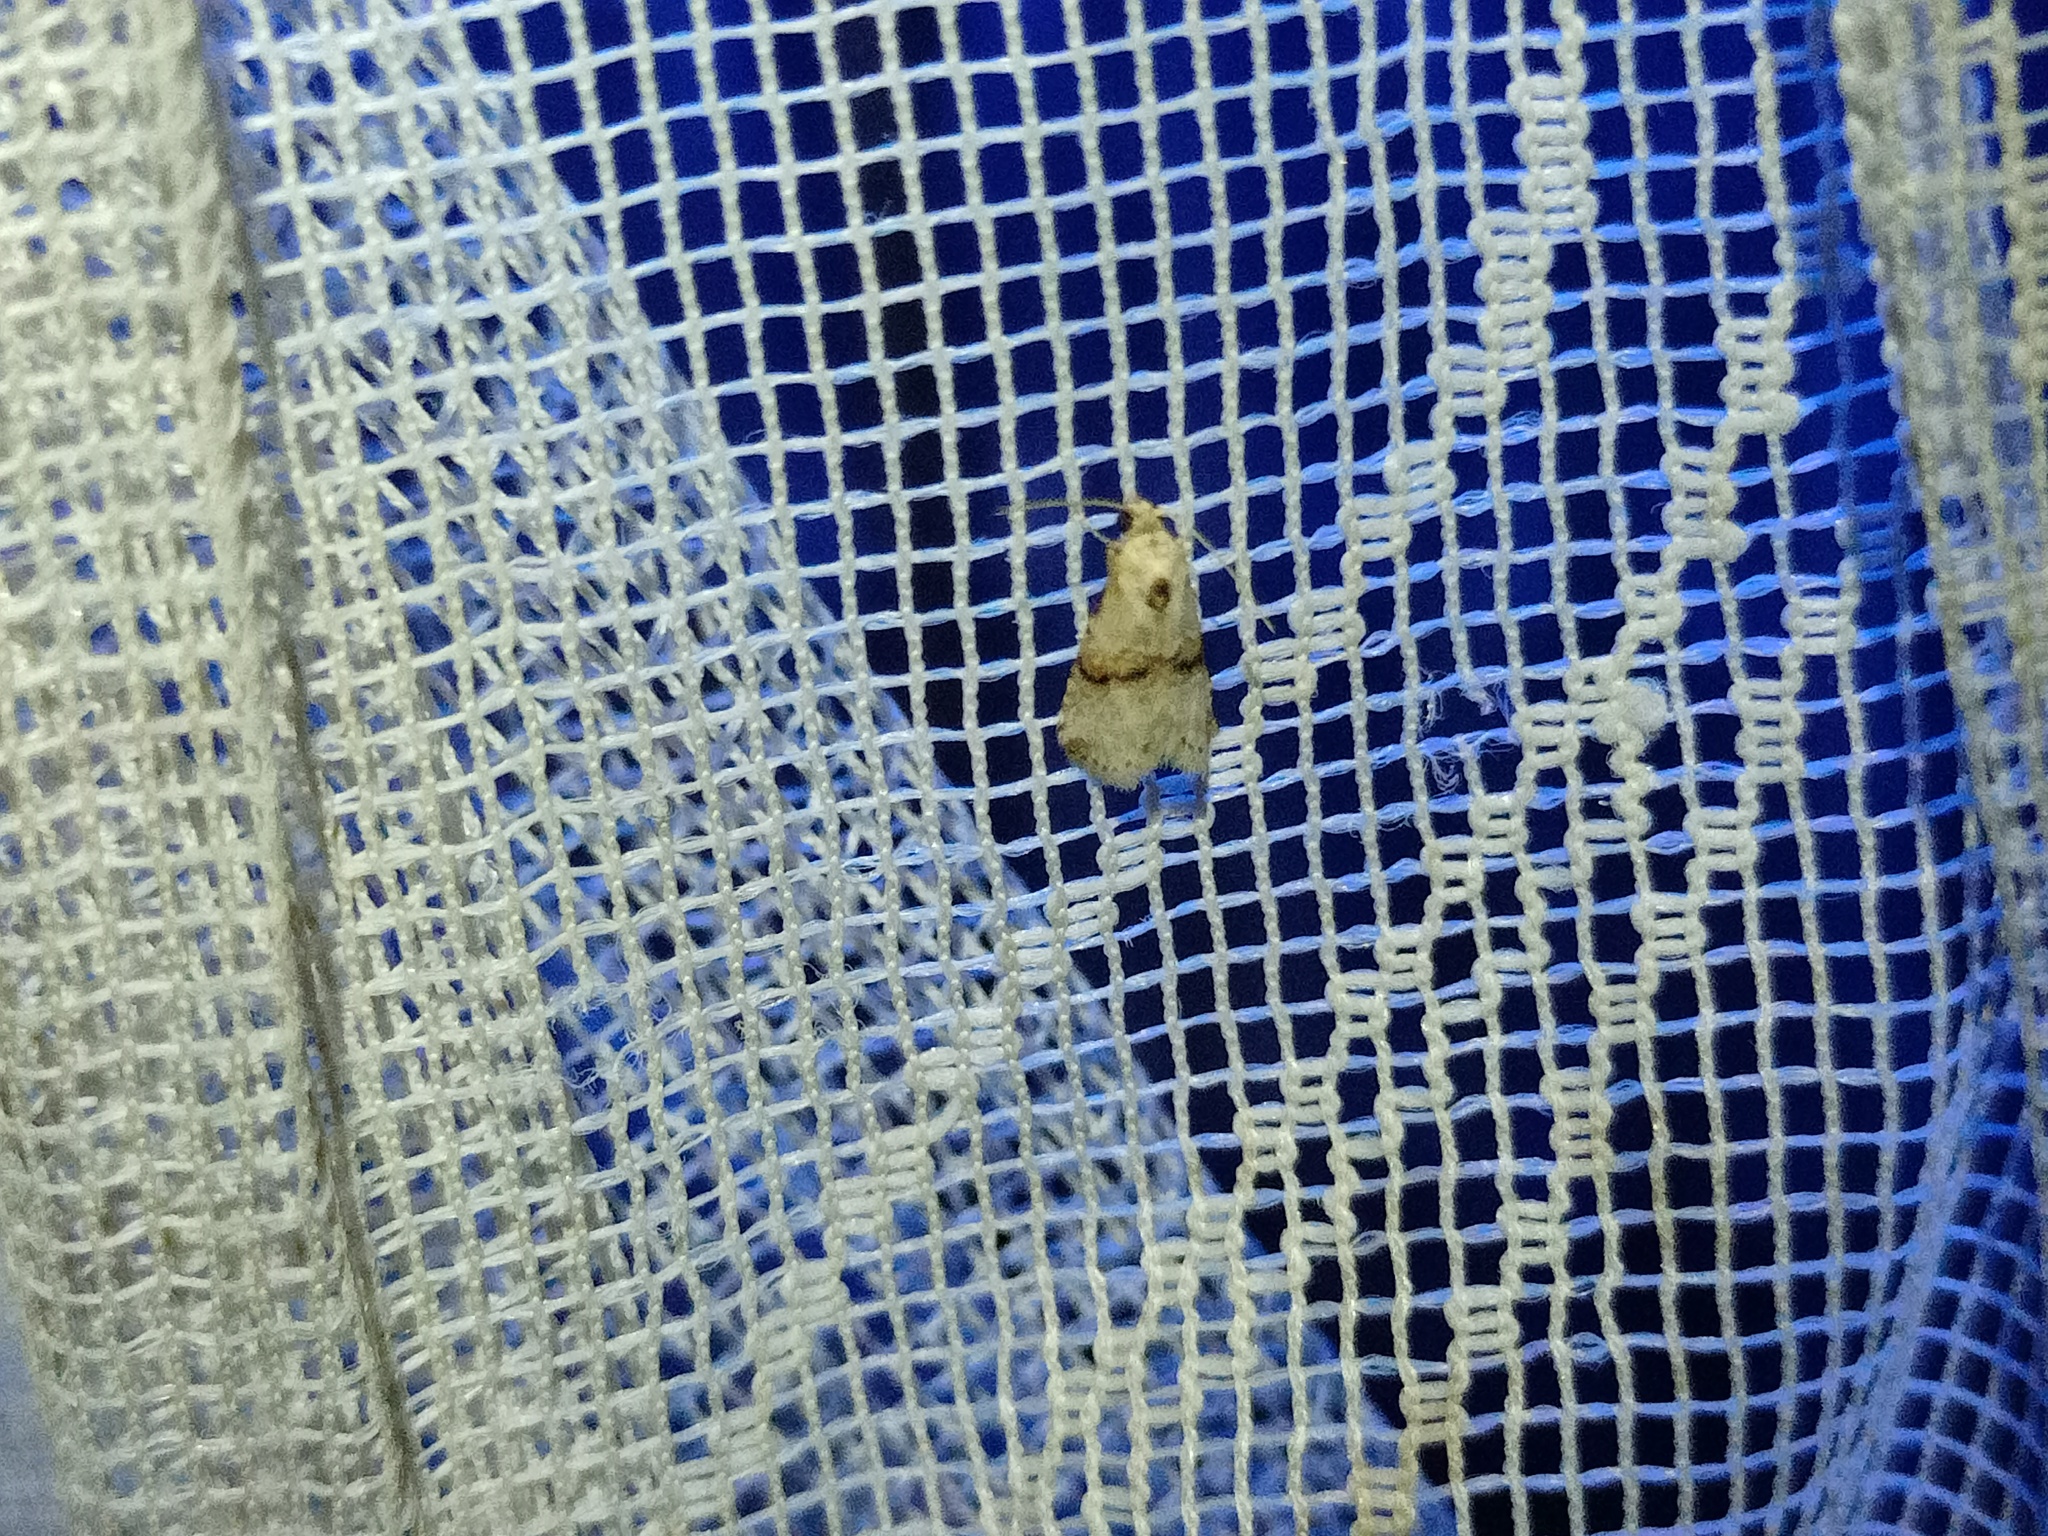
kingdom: Animalia
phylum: Arthropoda
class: Insecta
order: Lepidoptera
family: Erebidae
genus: Zebeeba
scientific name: Zebeeba falsalis
